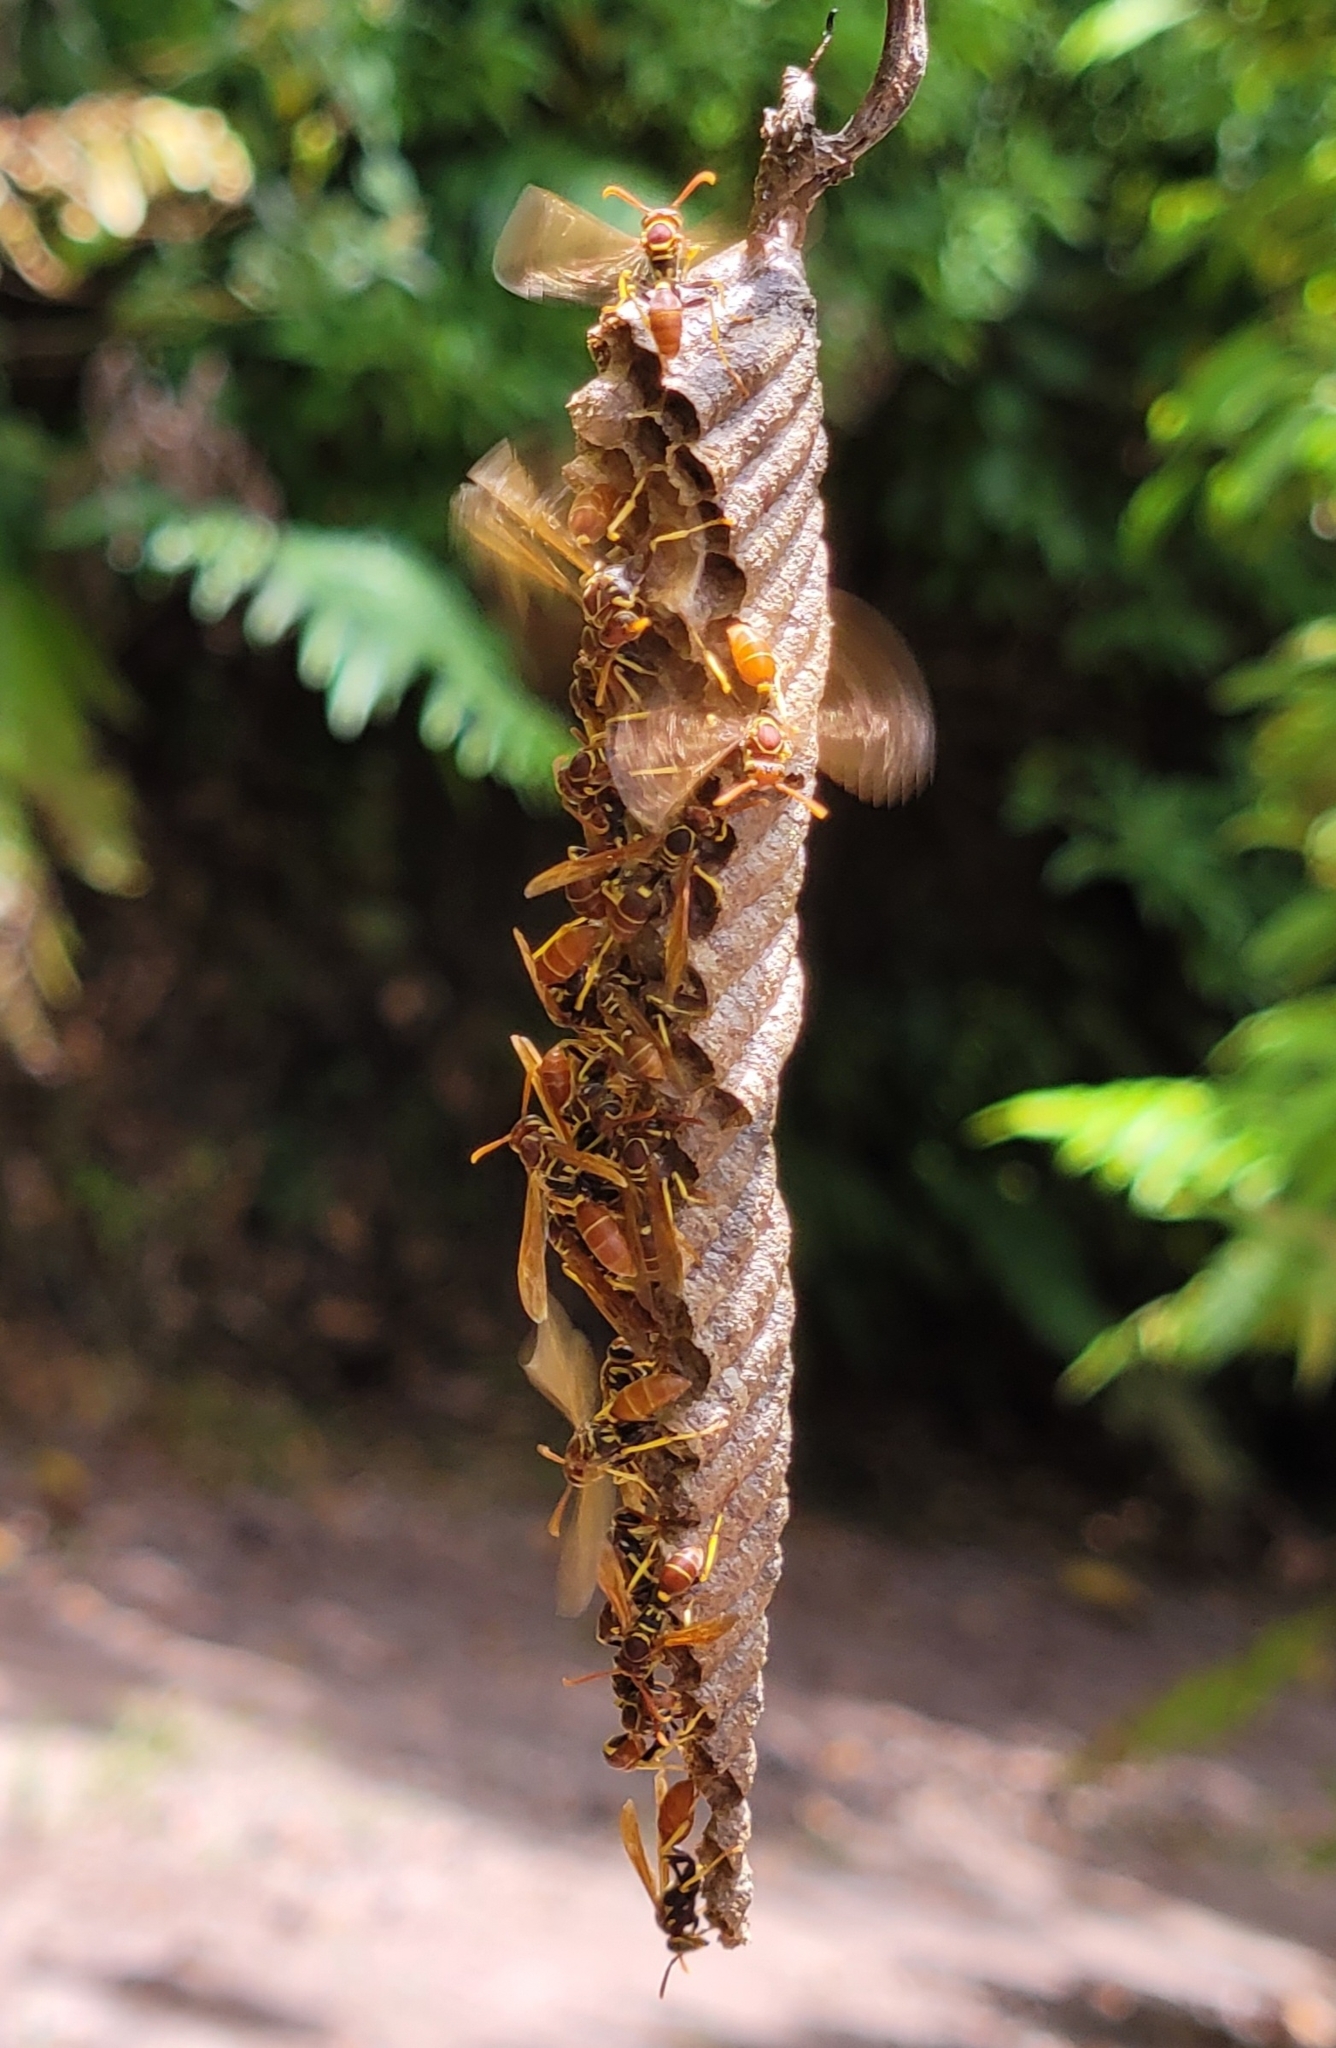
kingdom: Animalia
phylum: Arthropoda
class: Insecta
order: Hymenoptera
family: Vespidae
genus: Mischocyttarus
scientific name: Mischocyttarus phthisicus
